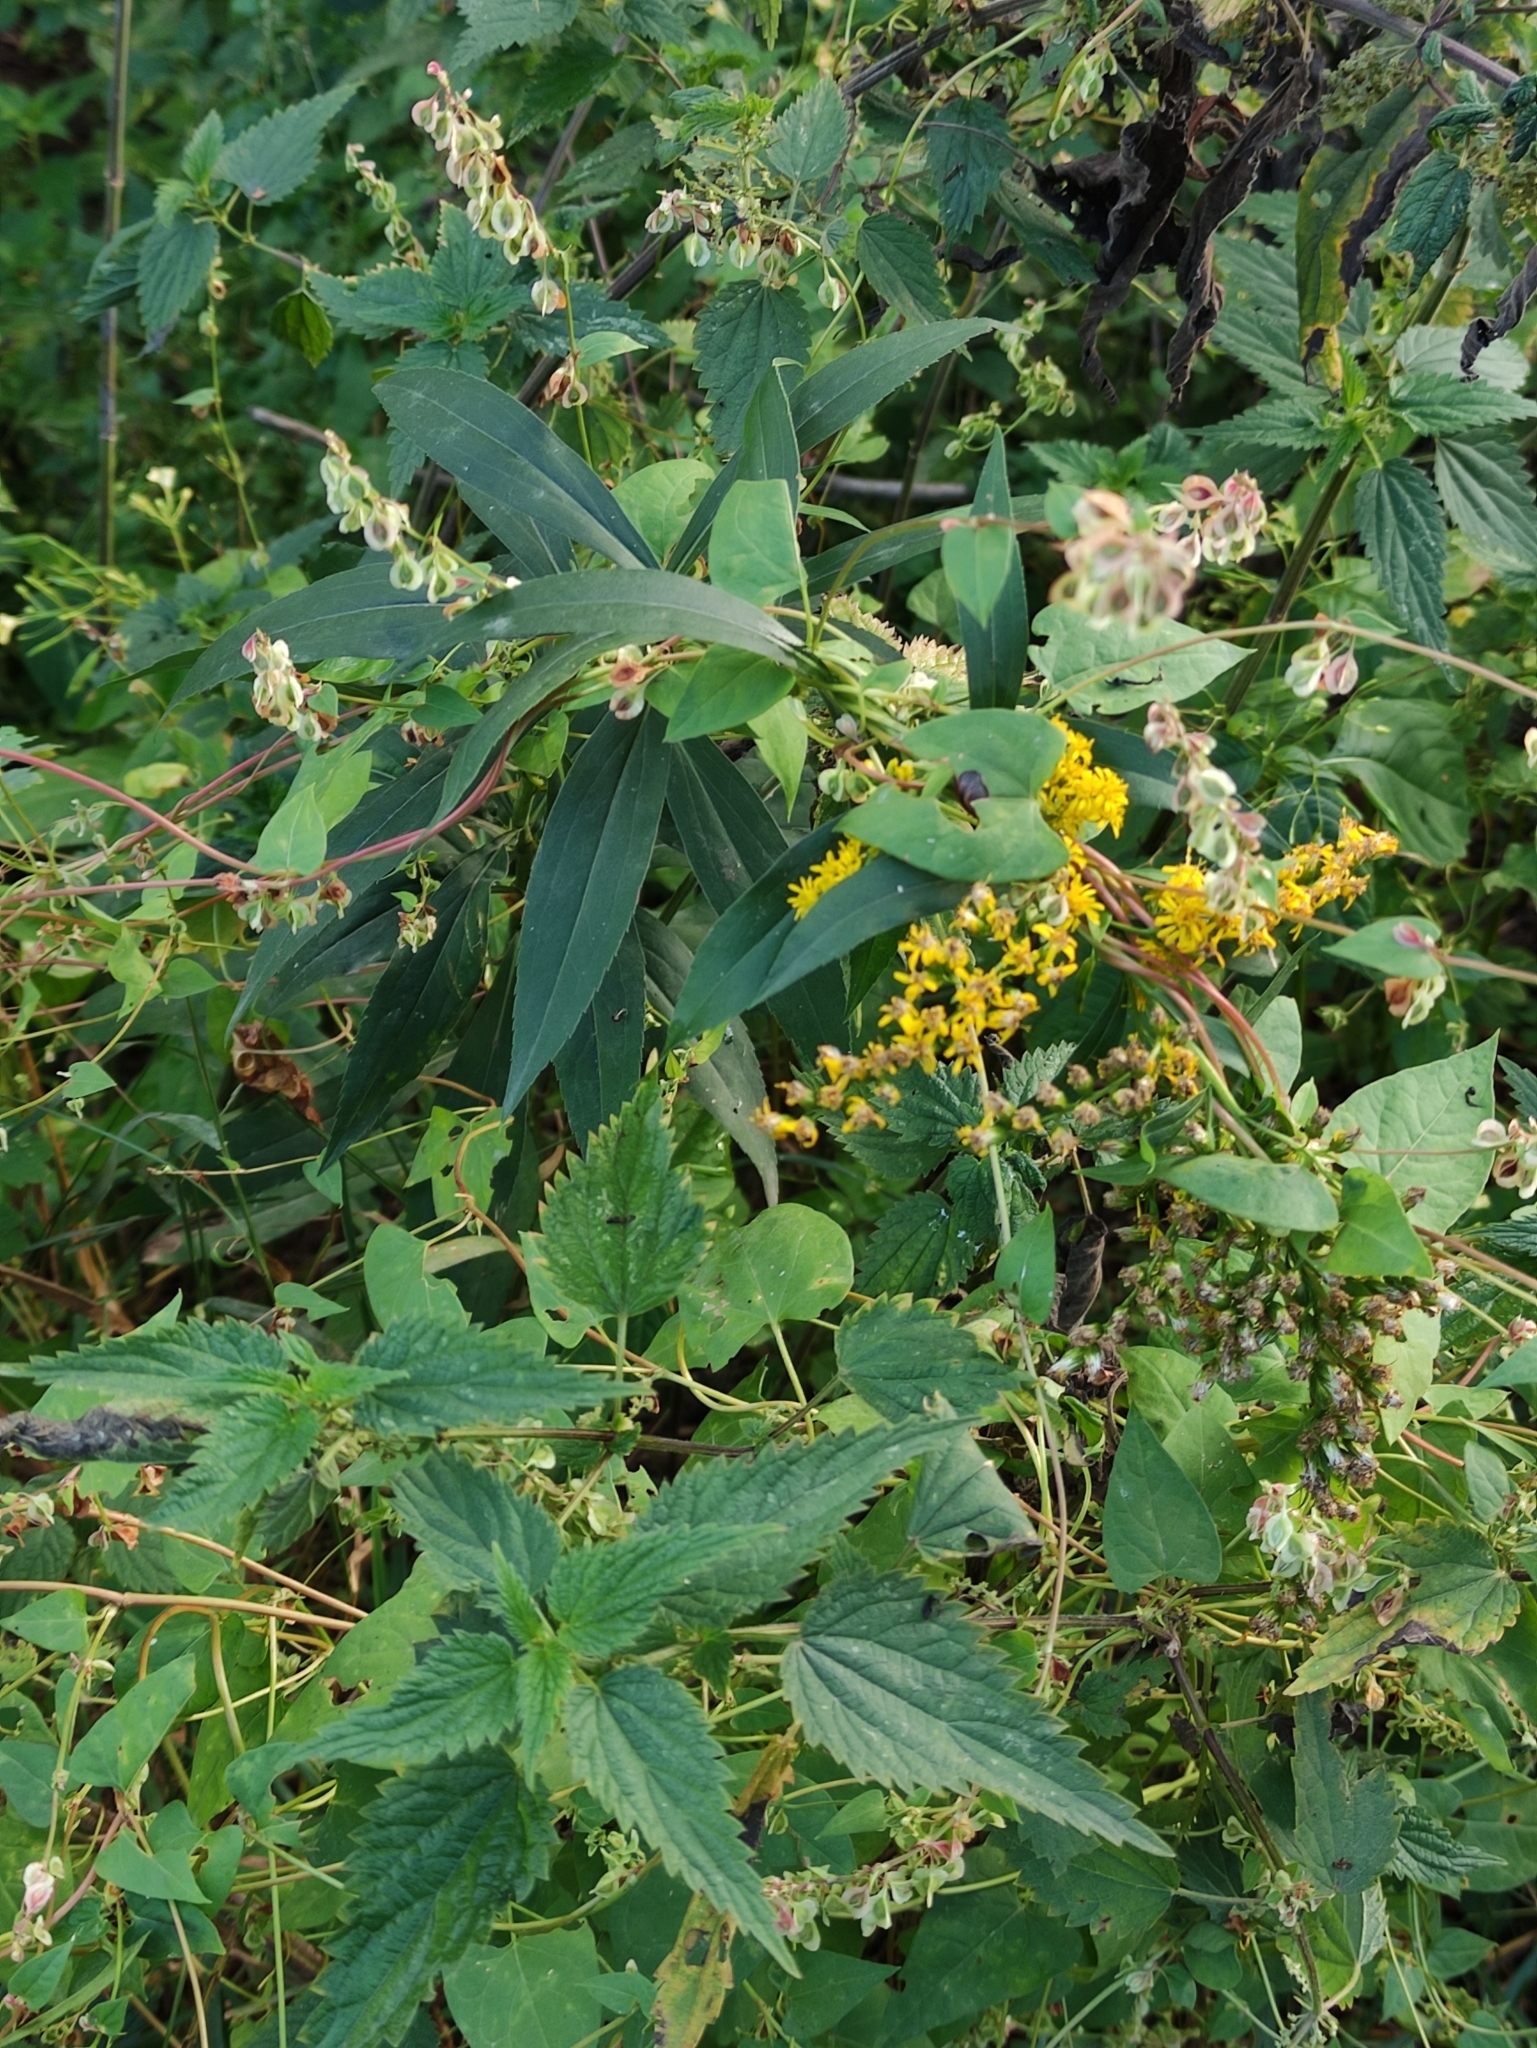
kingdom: Plantae
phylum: Tracheophyta
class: Magnoliopsida
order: Caryophyllales
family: Polygonaceae
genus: Fallopia
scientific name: Fallopia dumetorum
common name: Copse-bindweed
